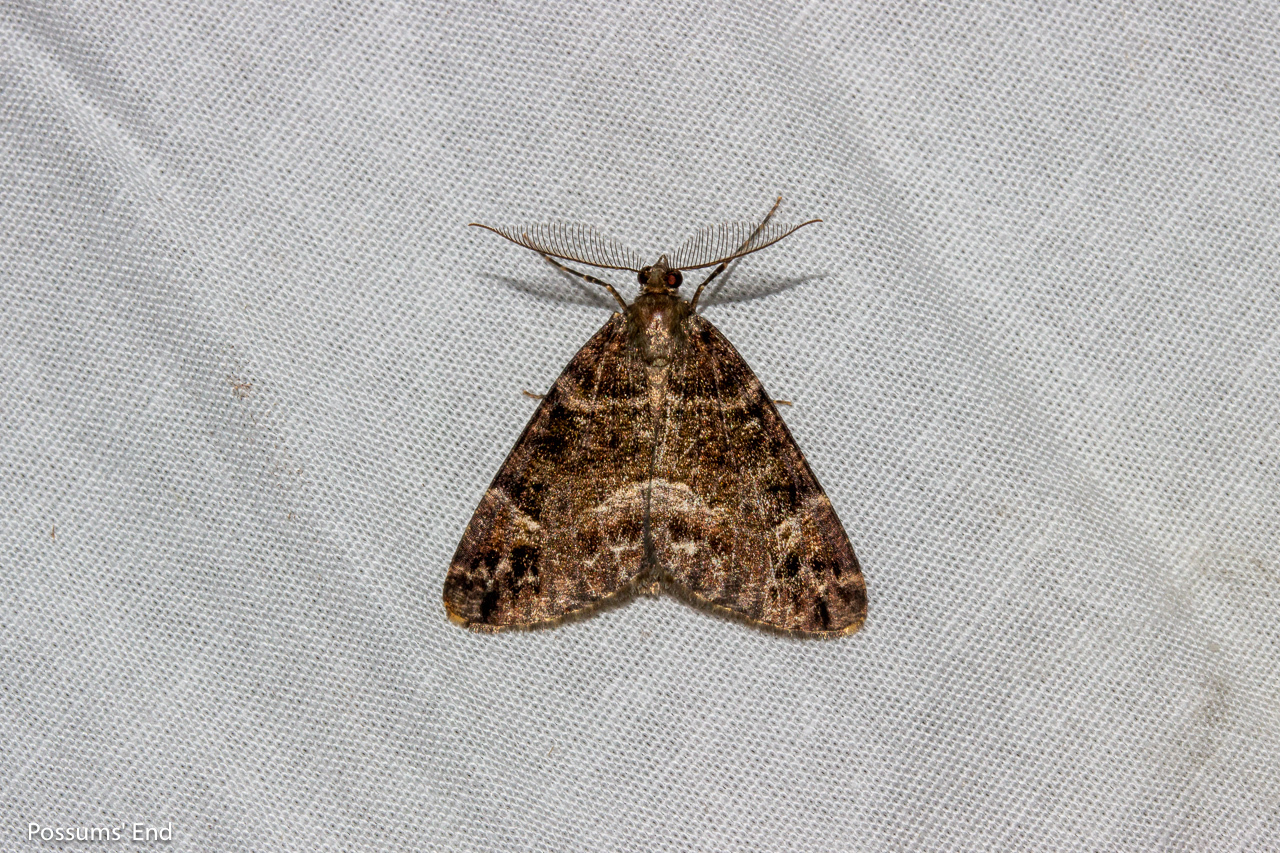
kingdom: Animalia
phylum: Arthropoda
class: Insecta
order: Lepidoptera
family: Geometridae
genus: Pseudocoremia
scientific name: Pseudocoremia productata
